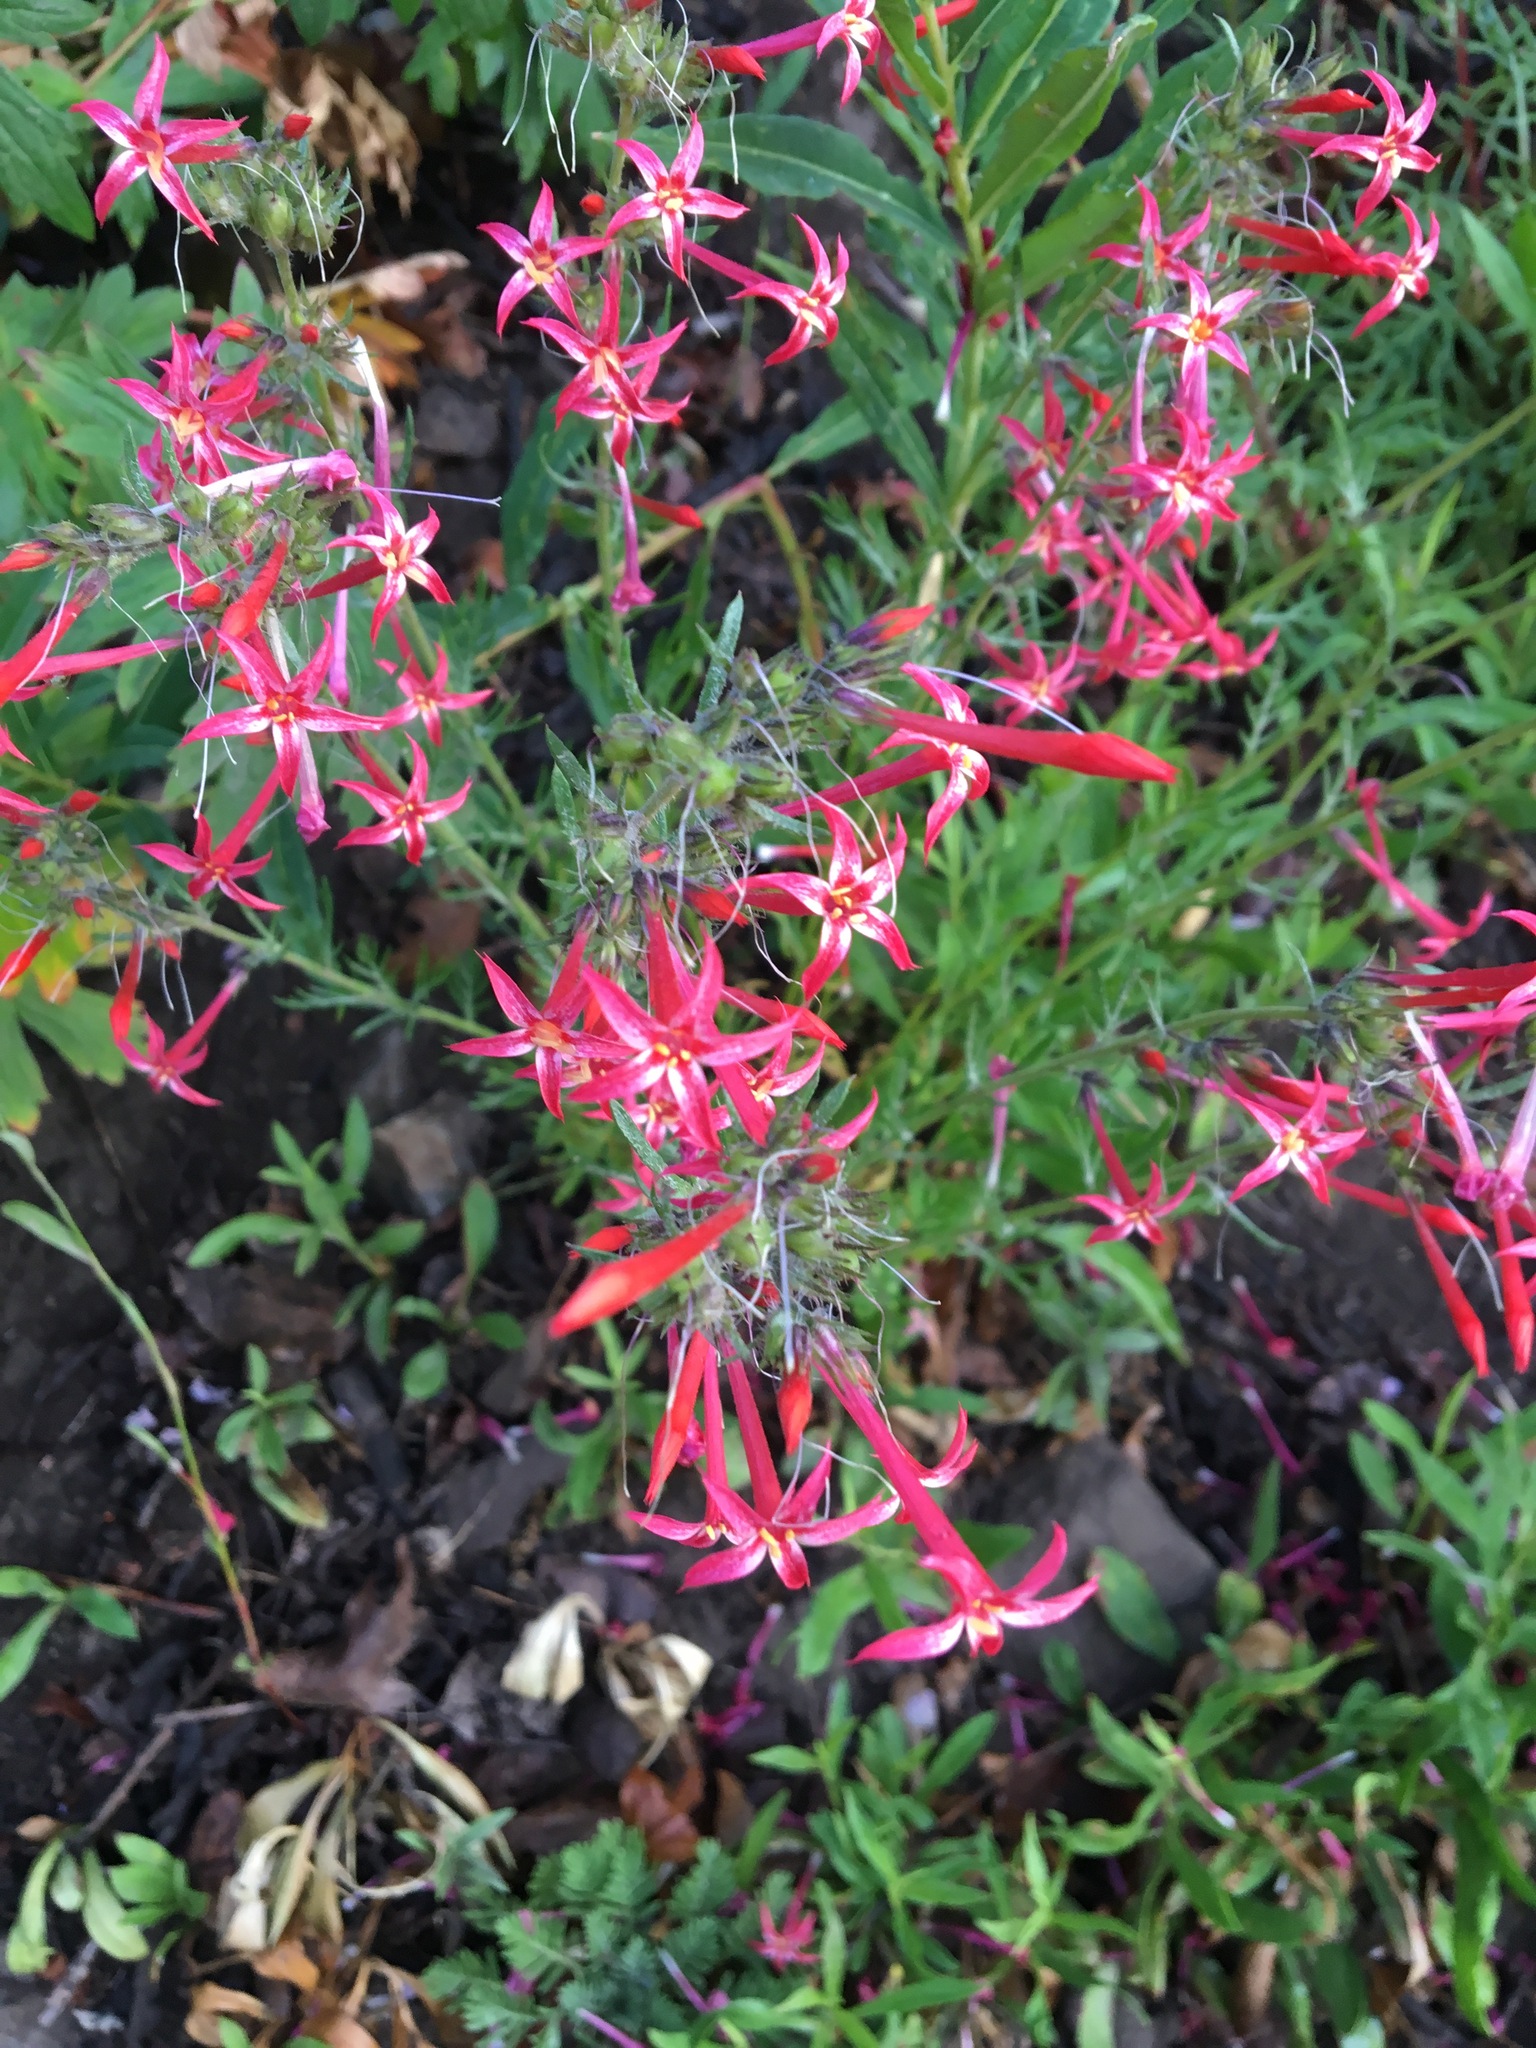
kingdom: Plantae
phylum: Tracheophyta
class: Magnoliopsida
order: Ericales
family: Polemoniaceae
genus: Ipomopsis
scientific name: Ipomopsis aggregata
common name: Scarlet gilia
